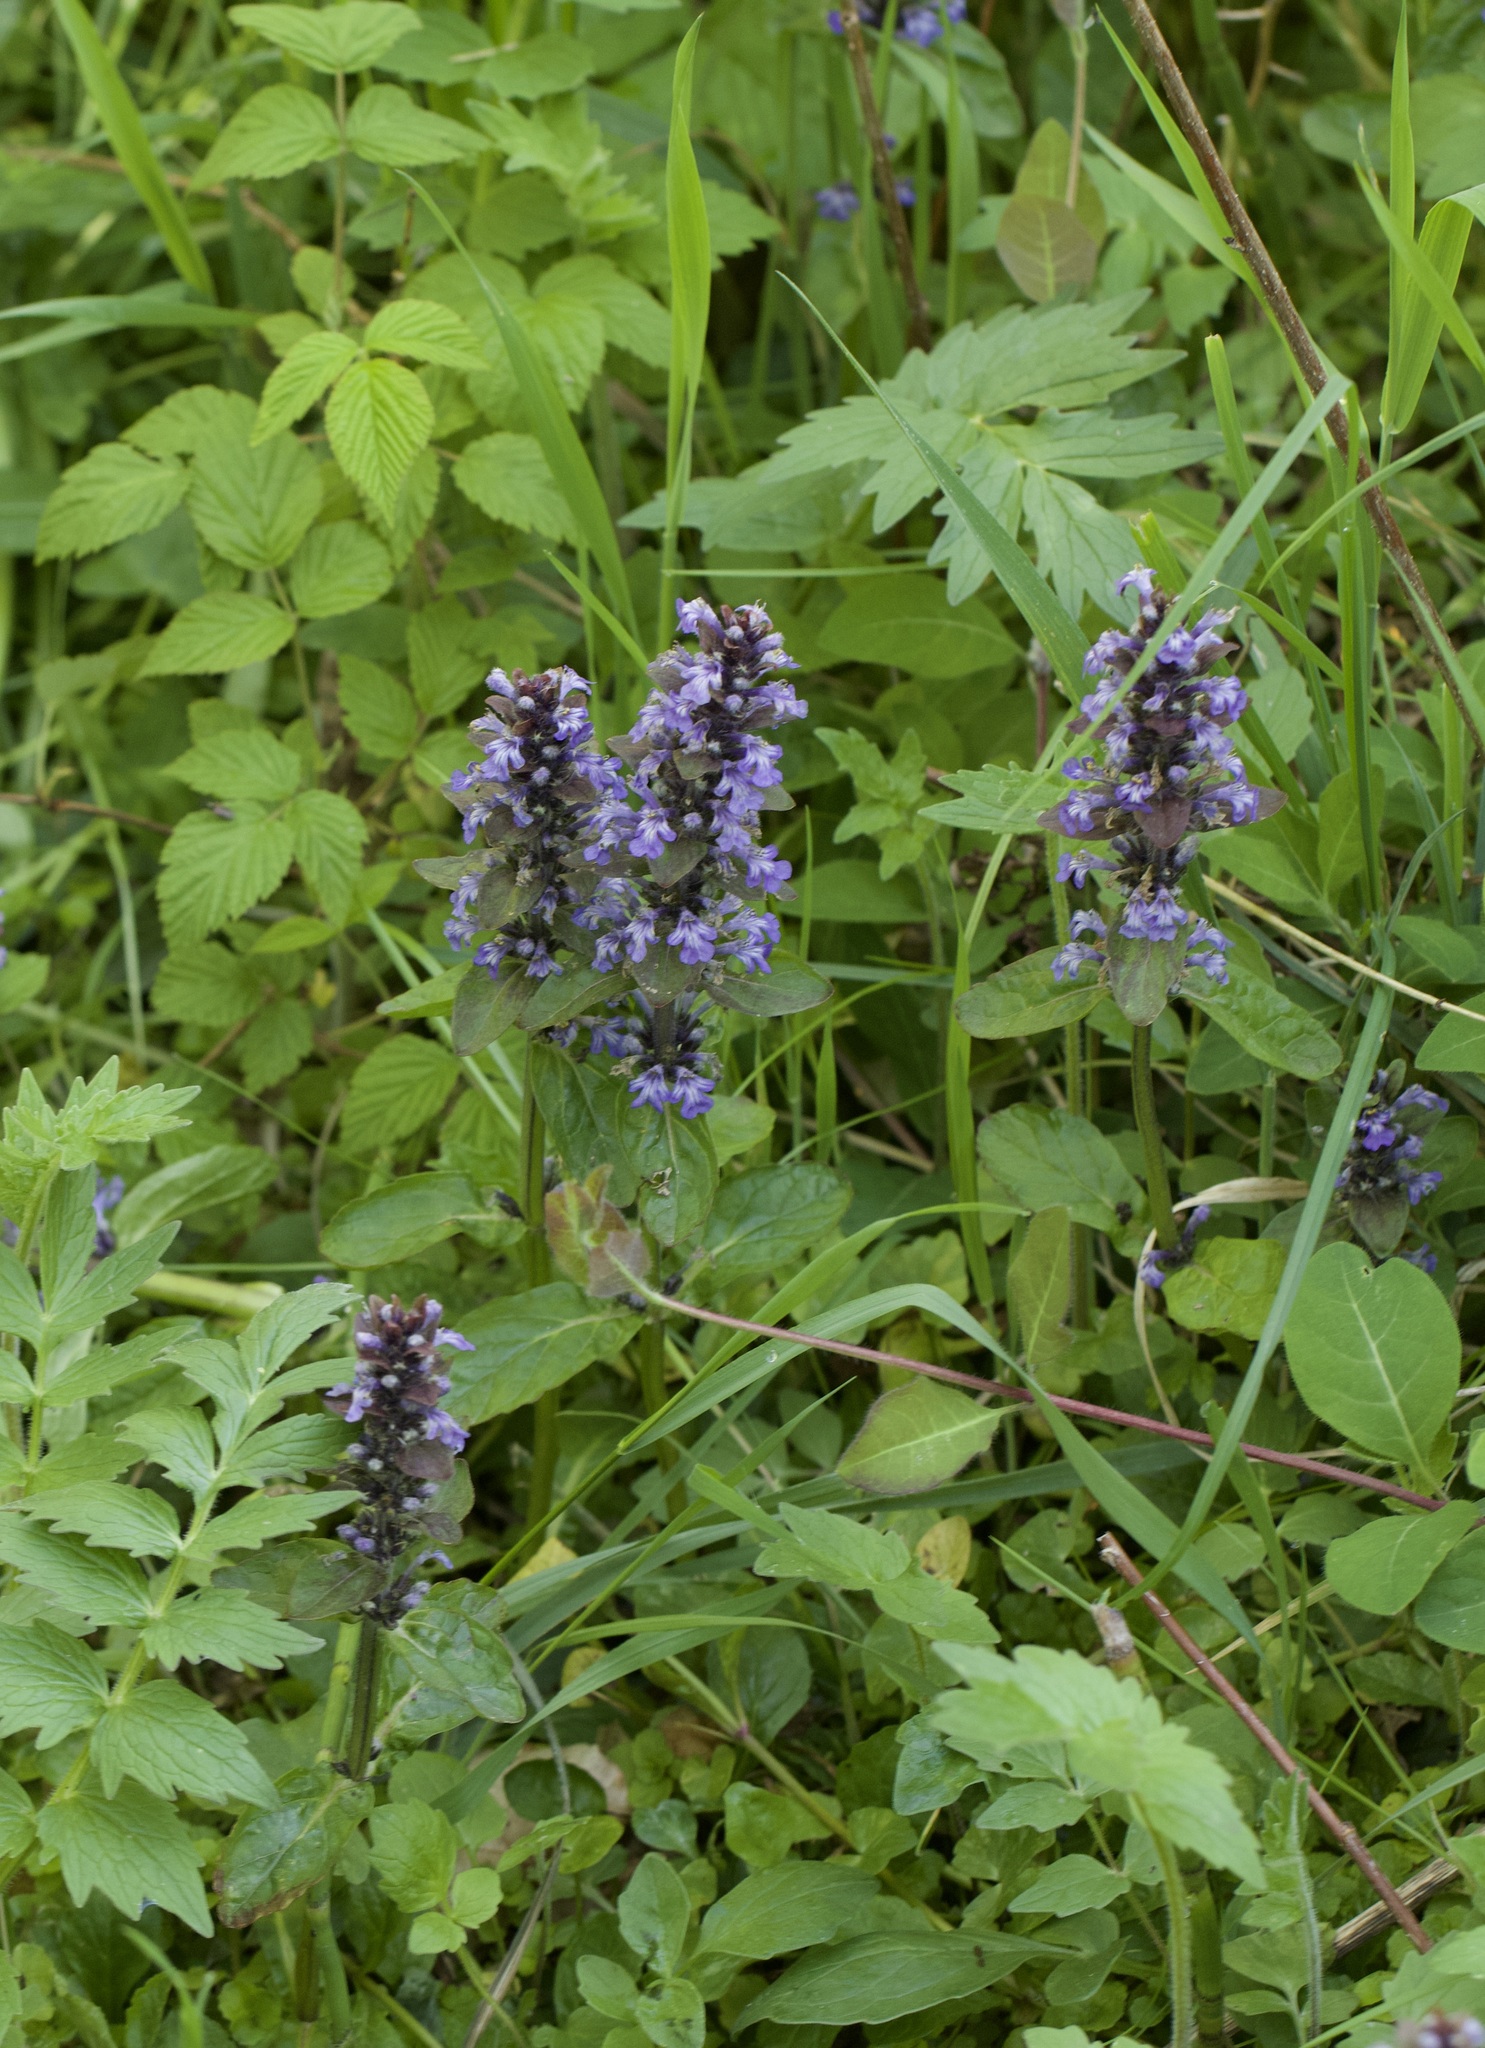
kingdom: Plantae
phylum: Tracheophyta
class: Magnoliopsida
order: Lamiales
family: Lamiaceae
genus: Ajuga
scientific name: Ajuga reptans
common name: Bugle
